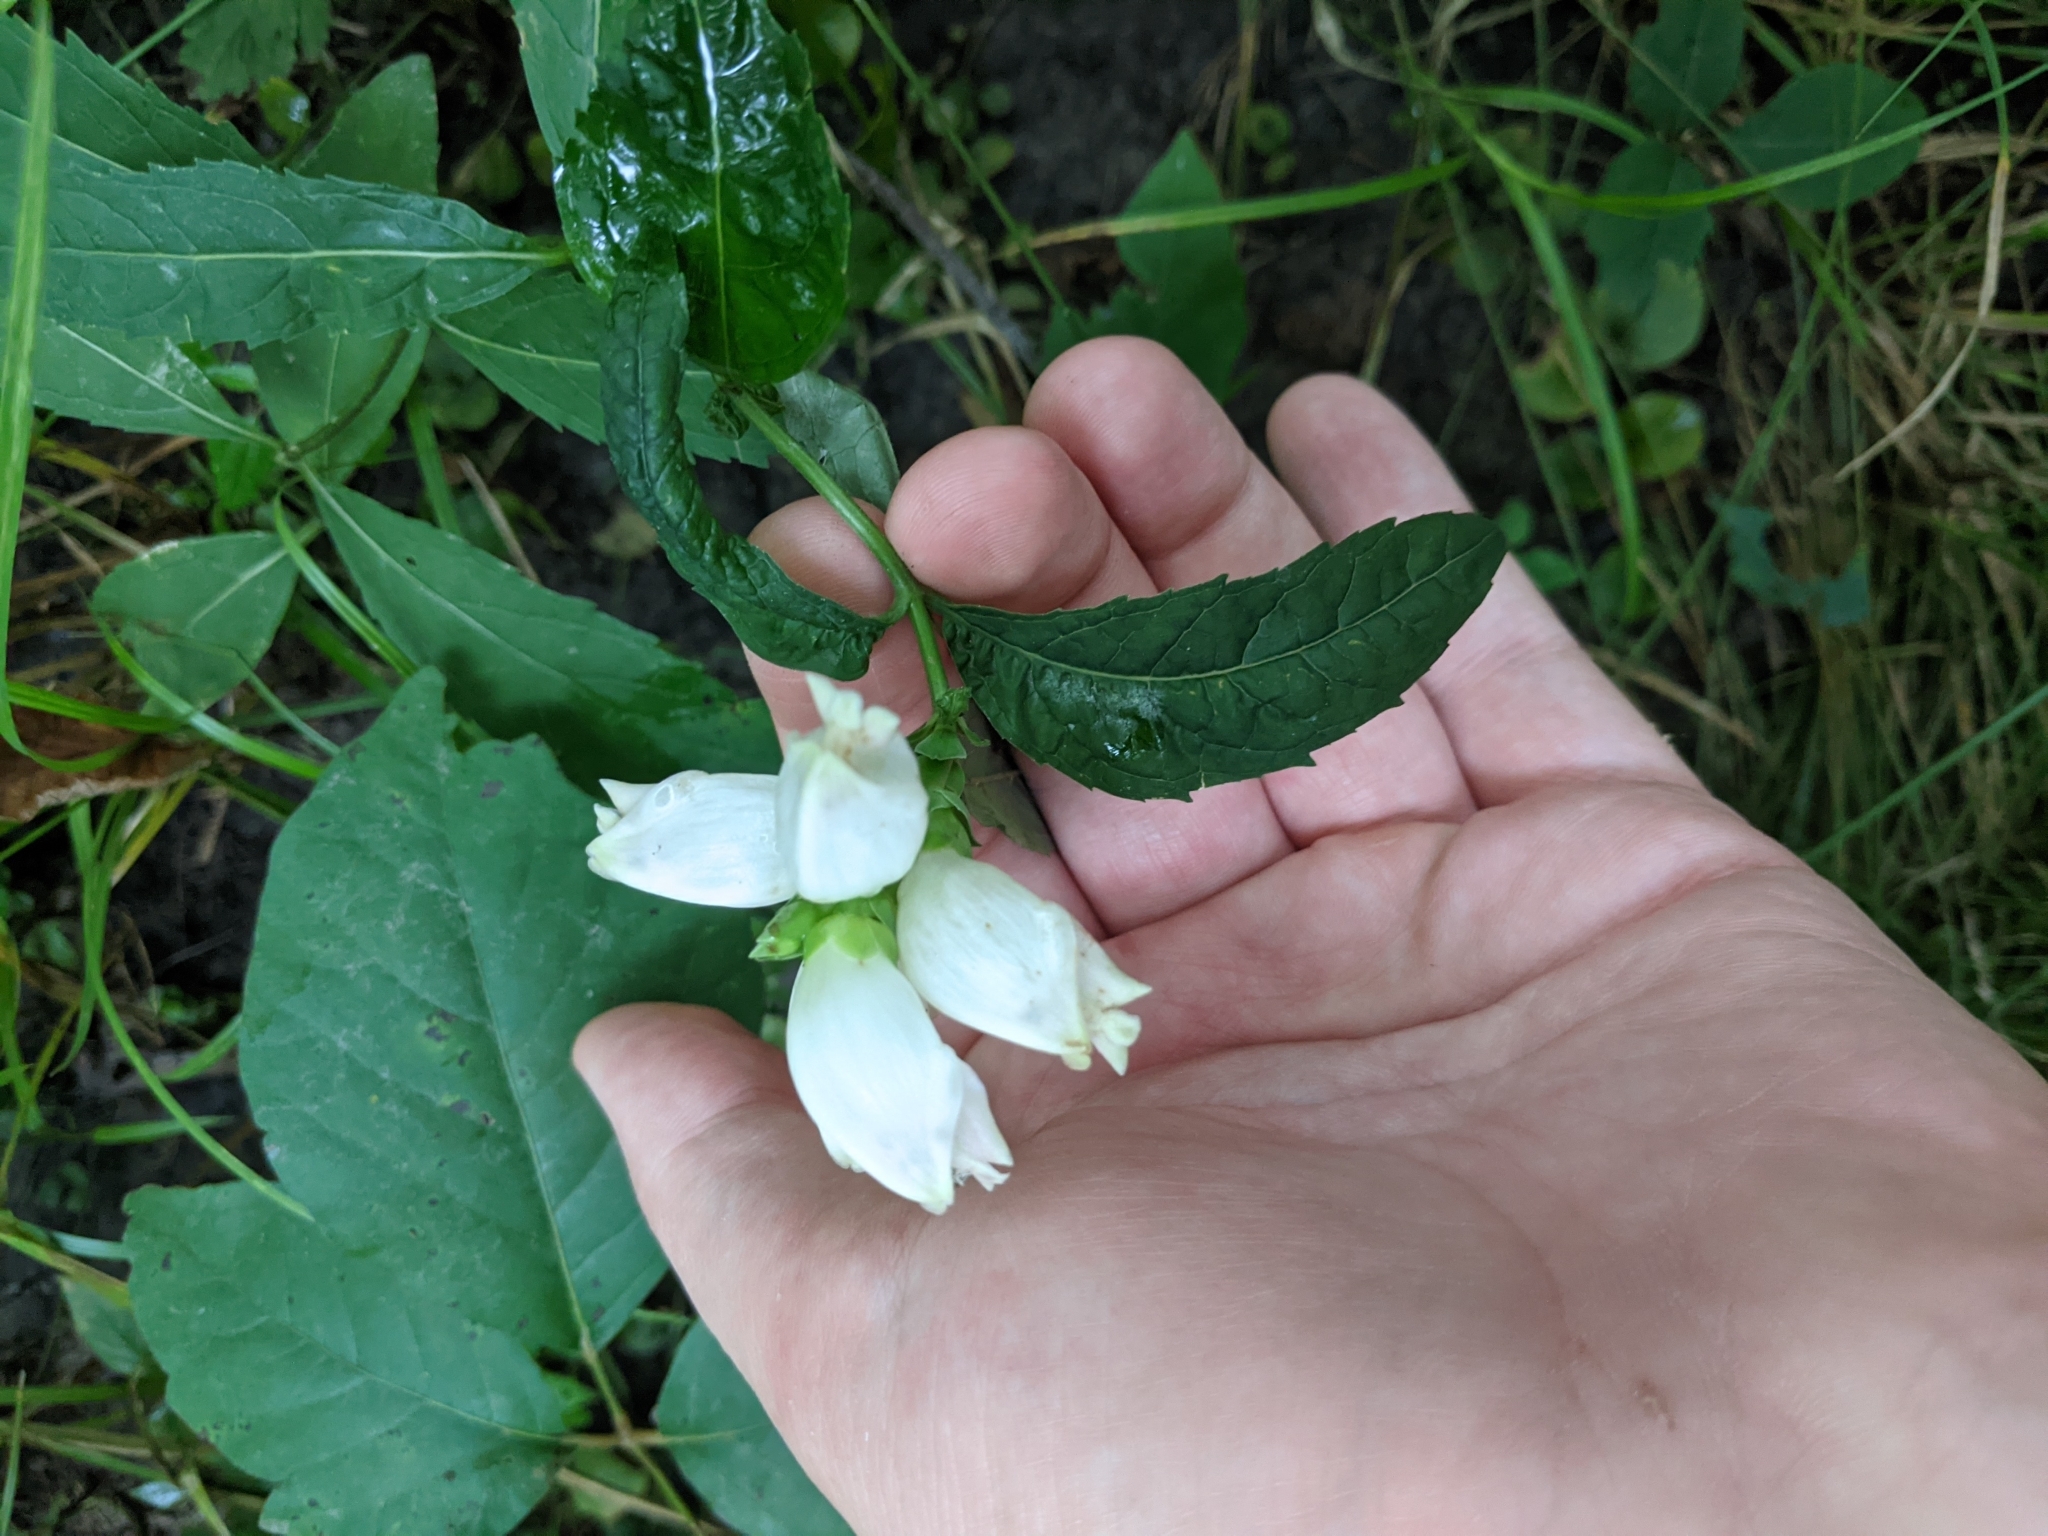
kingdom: Plantae
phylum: Tracheophyta
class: Magnoliopsida
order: Lamiales
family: Plantaginaceae
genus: Chelone
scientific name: Chelone glabra
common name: Snakehead
